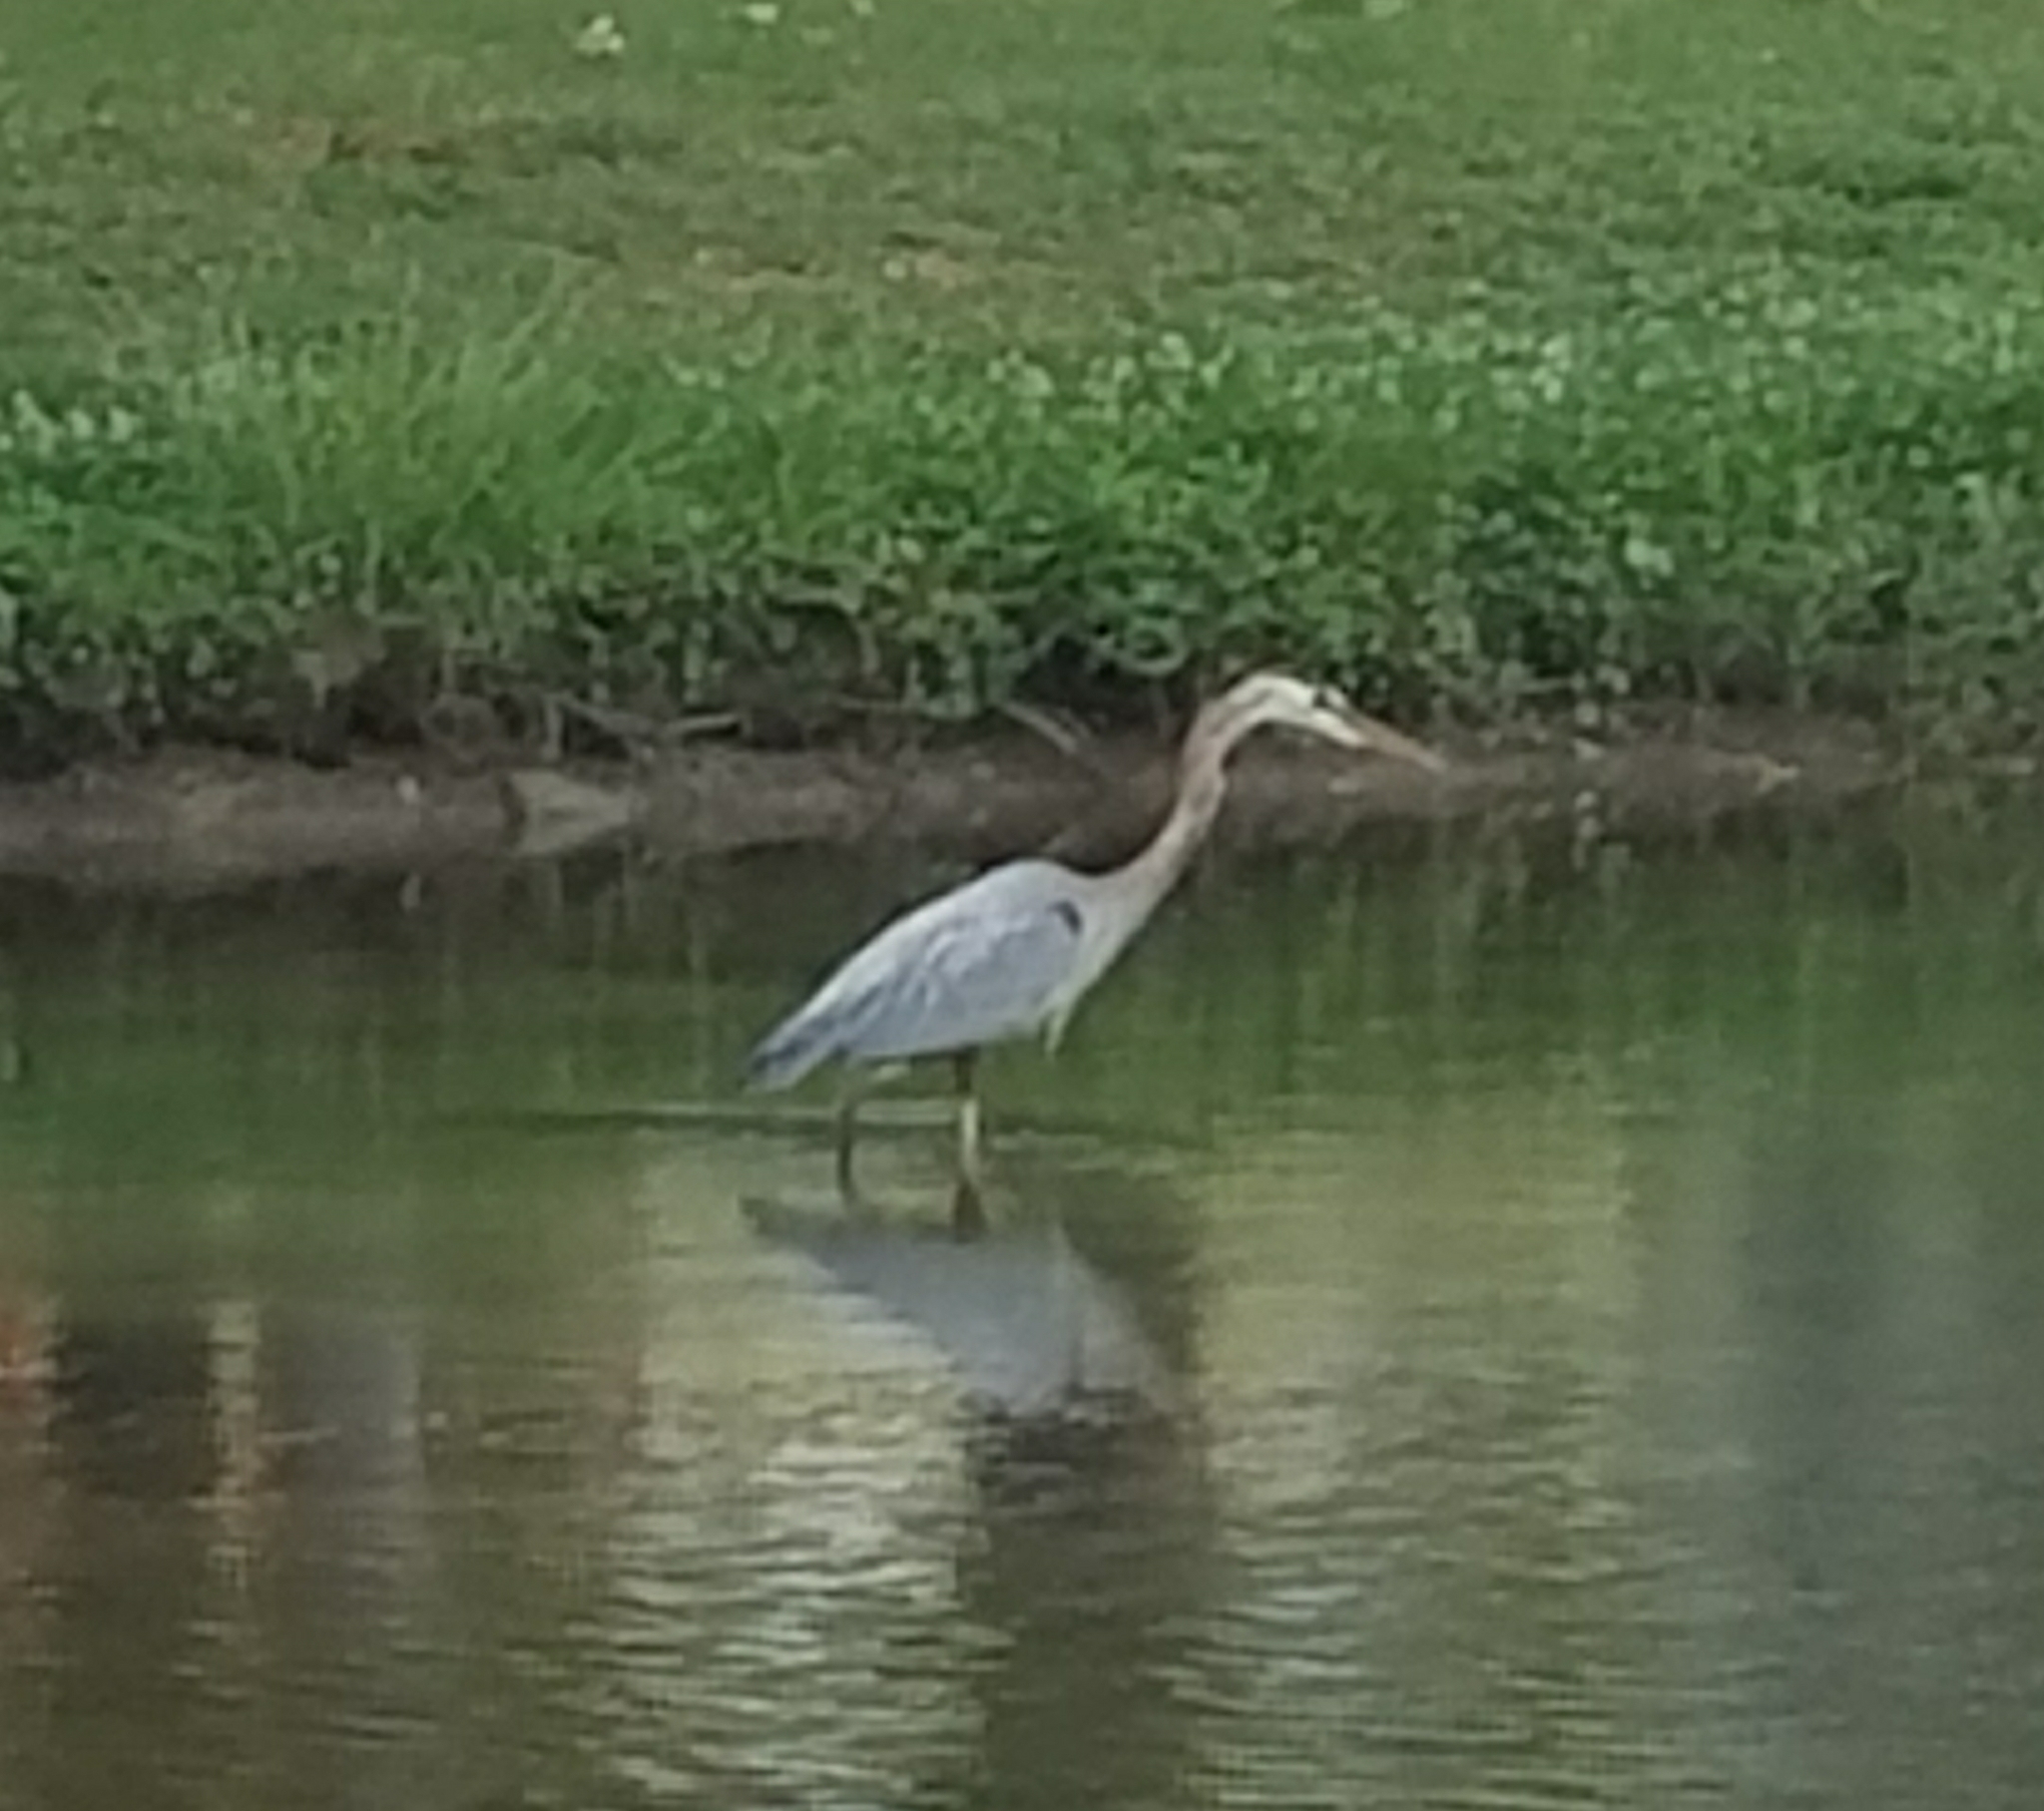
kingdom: Animalia
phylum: Chordata
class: Aves
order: Pelecaniformes
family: Ardeidae
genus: Ardea
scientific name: Ardea herodias
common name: Great blue heron
